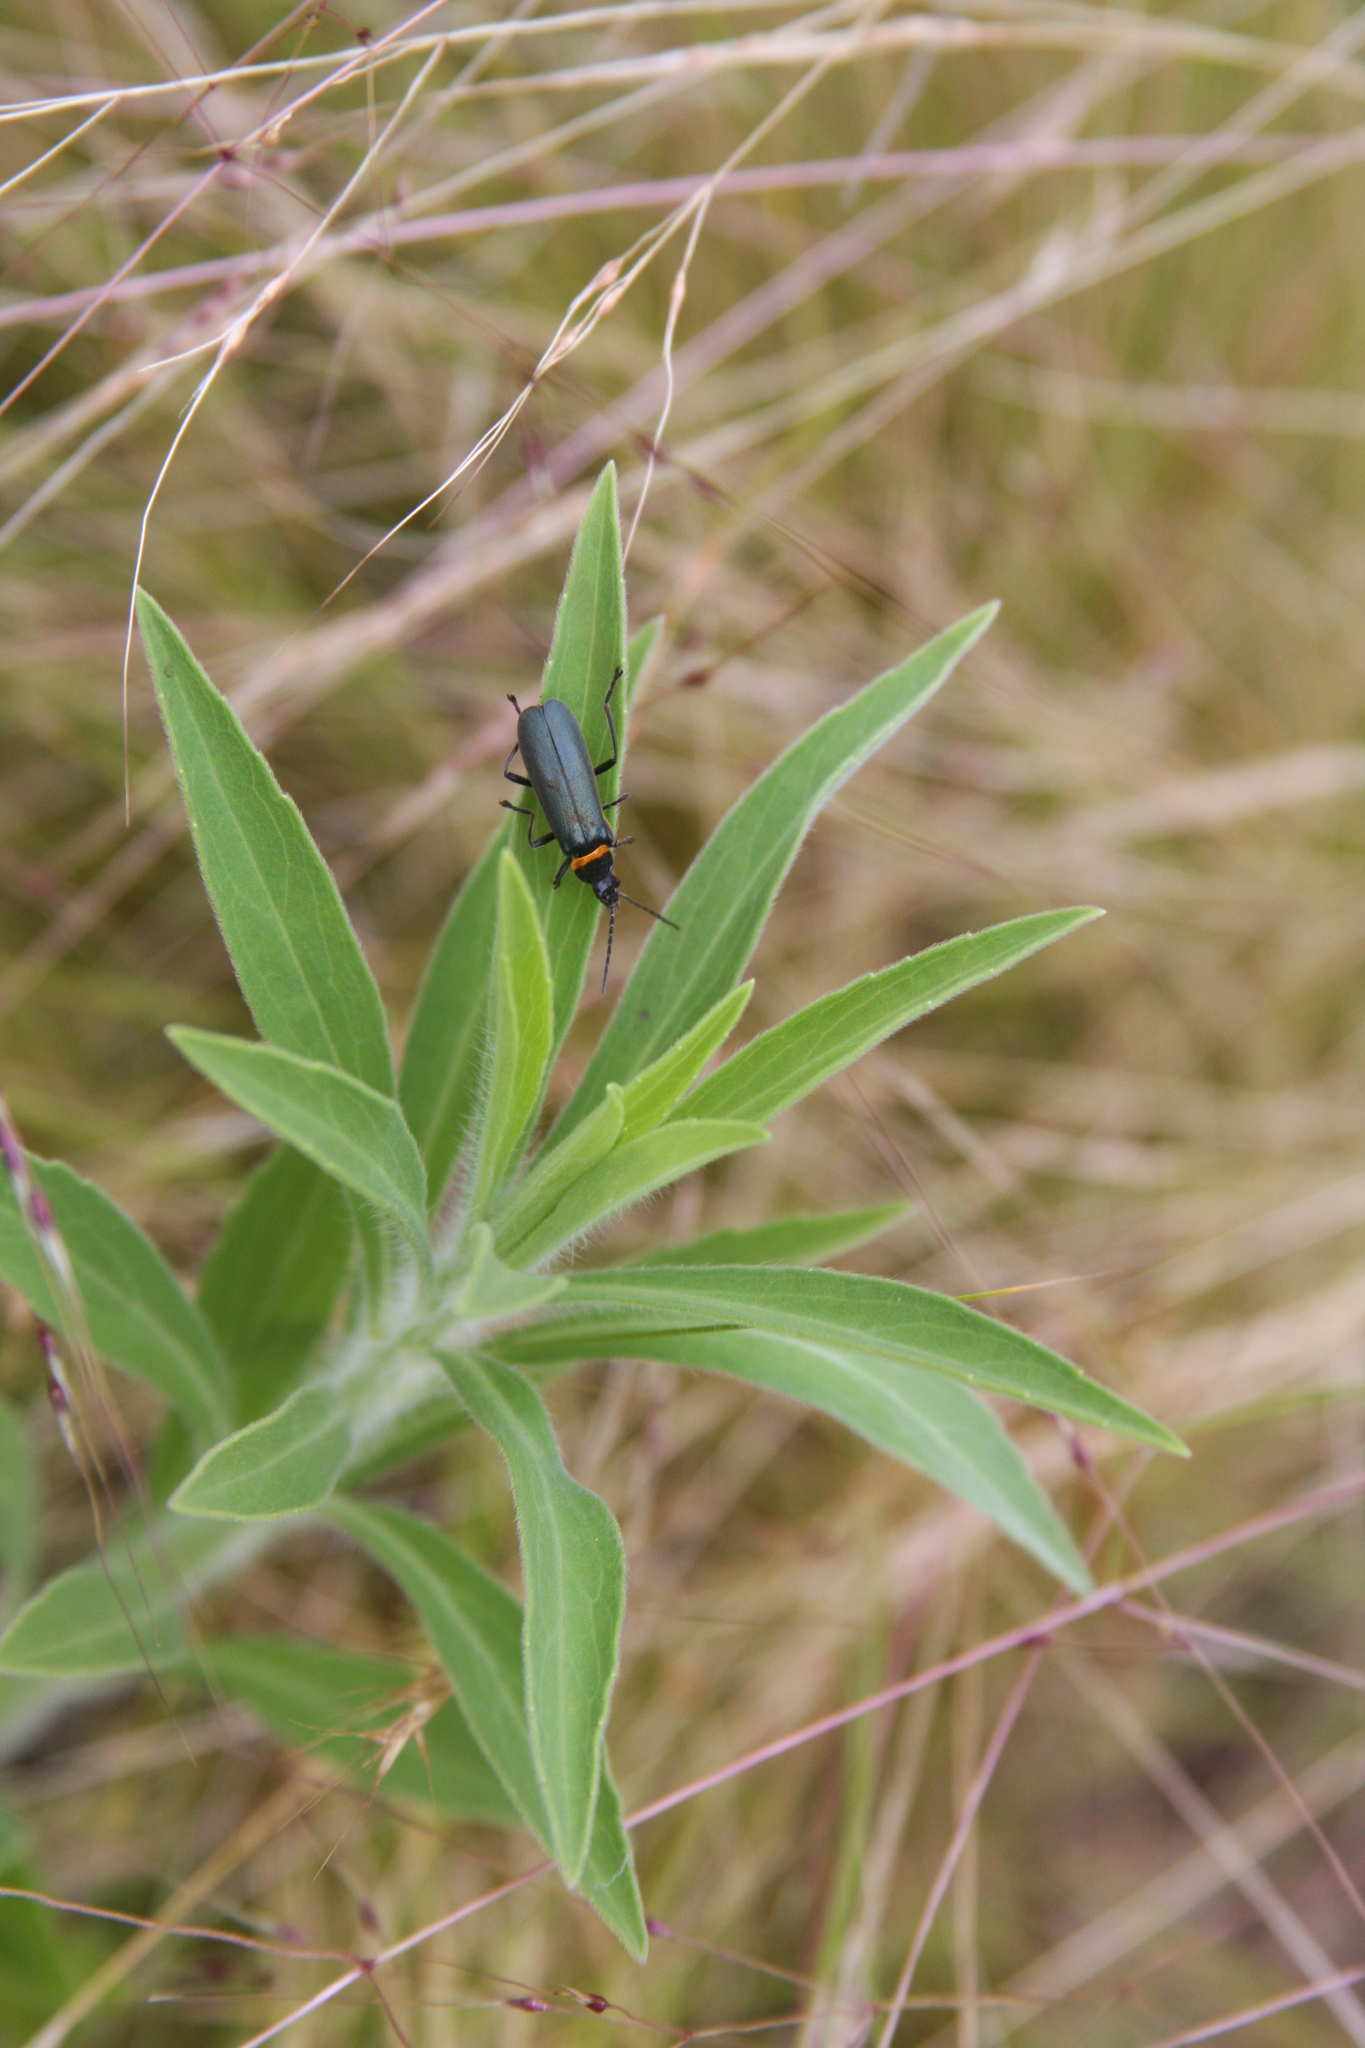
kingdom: Animalia
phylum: Arthropoda
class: Insecta
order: Coleoptera
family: Cantharidae
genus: Chauliognathus
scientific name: Chauliognathus
